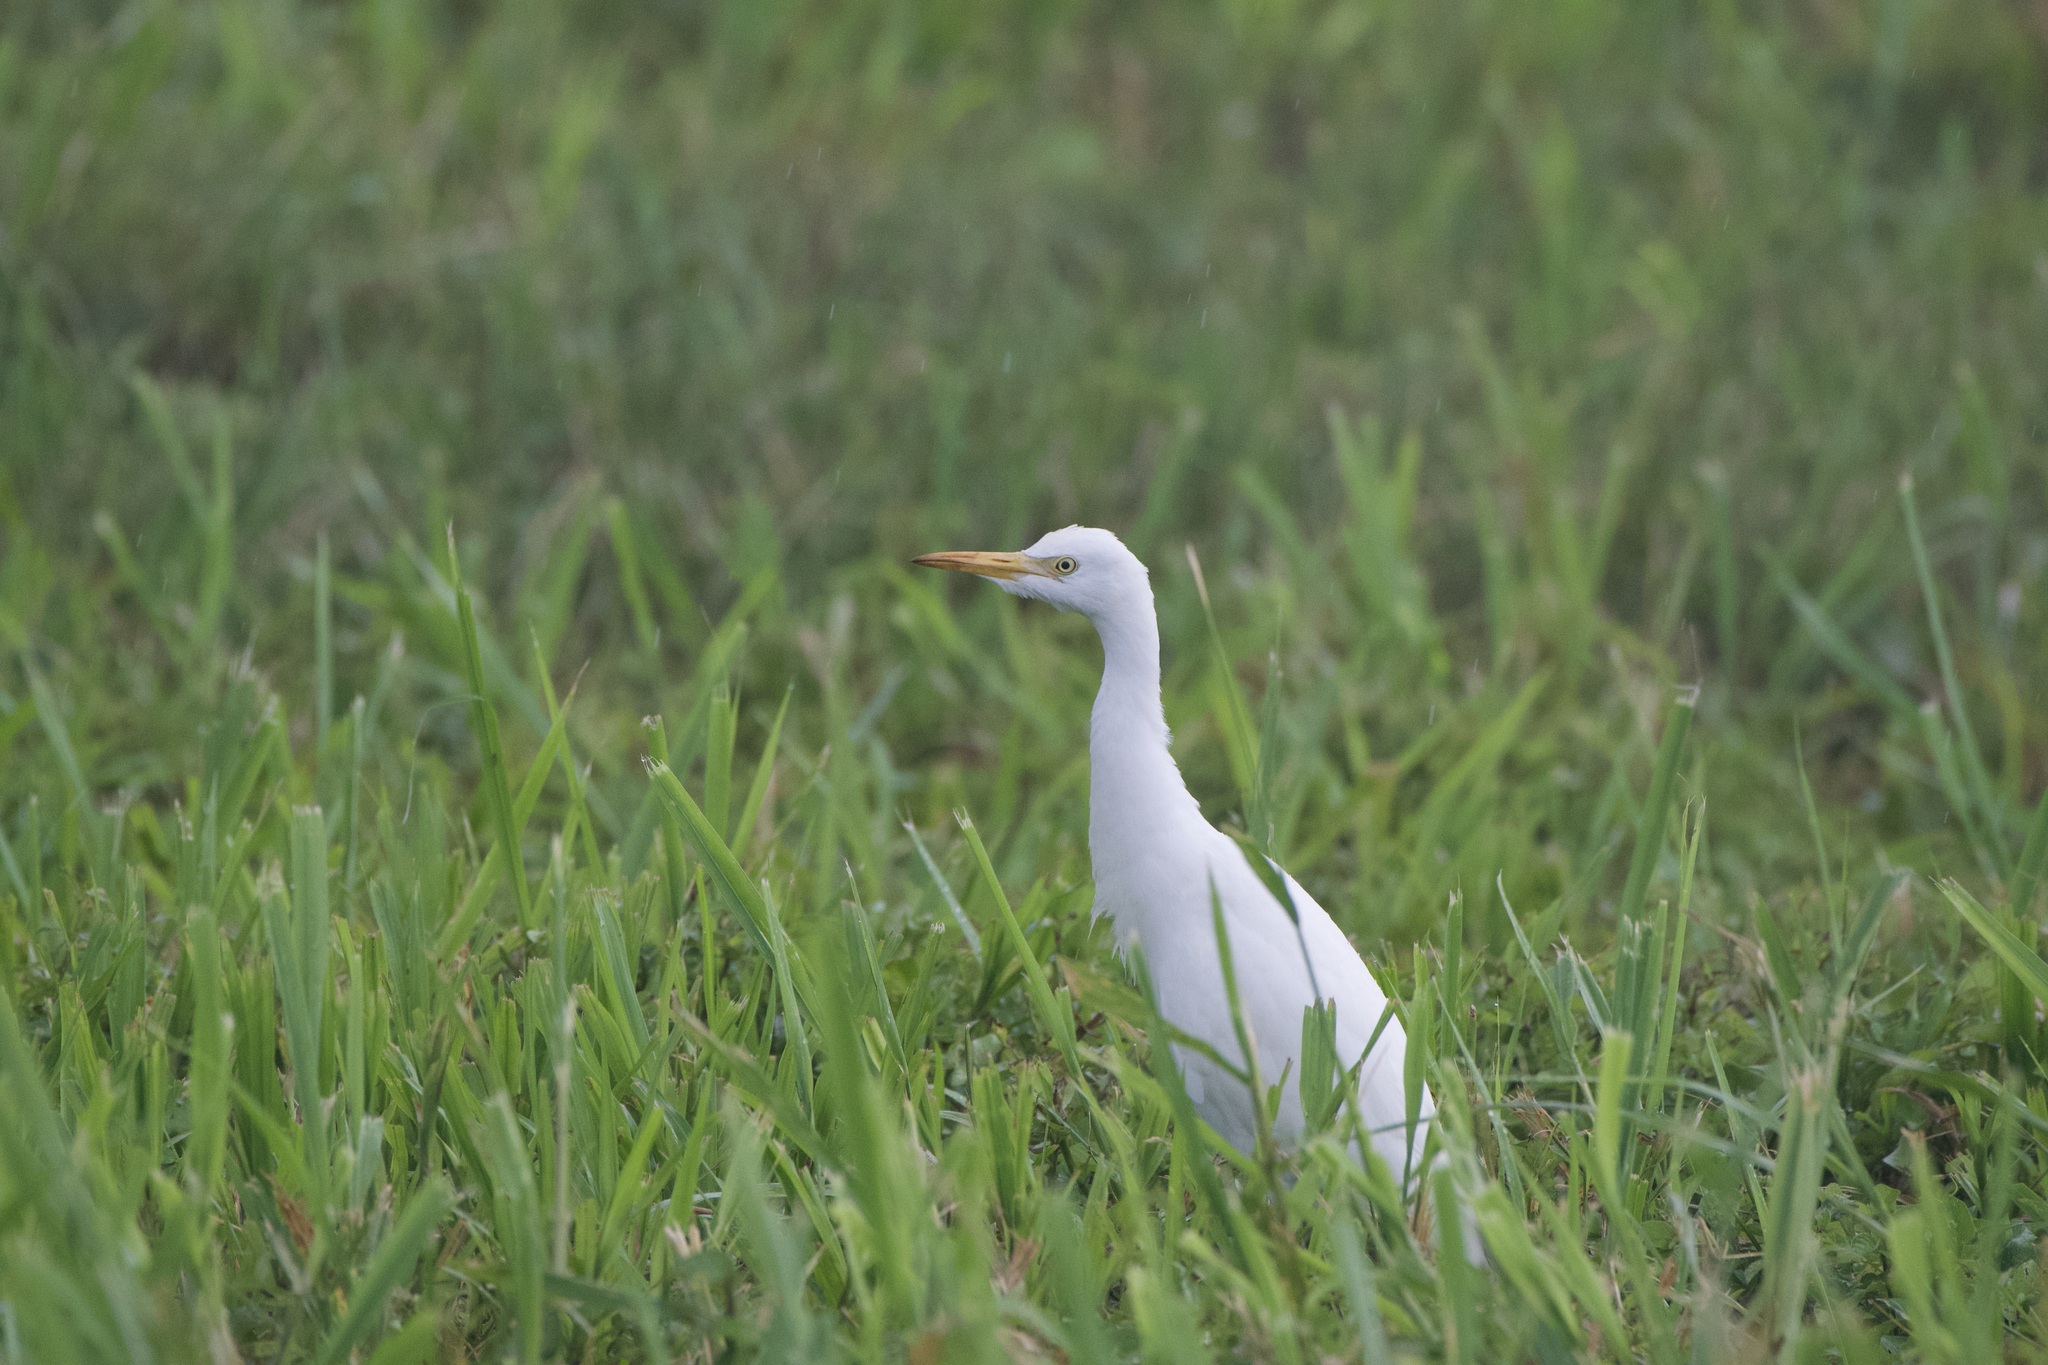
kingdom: Animalia
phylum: Chordata
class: Aves
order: Pelecaniformes
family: Ardeidae
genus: Bubulcus
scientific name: Bubulcus ibis
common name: Cattle egret
